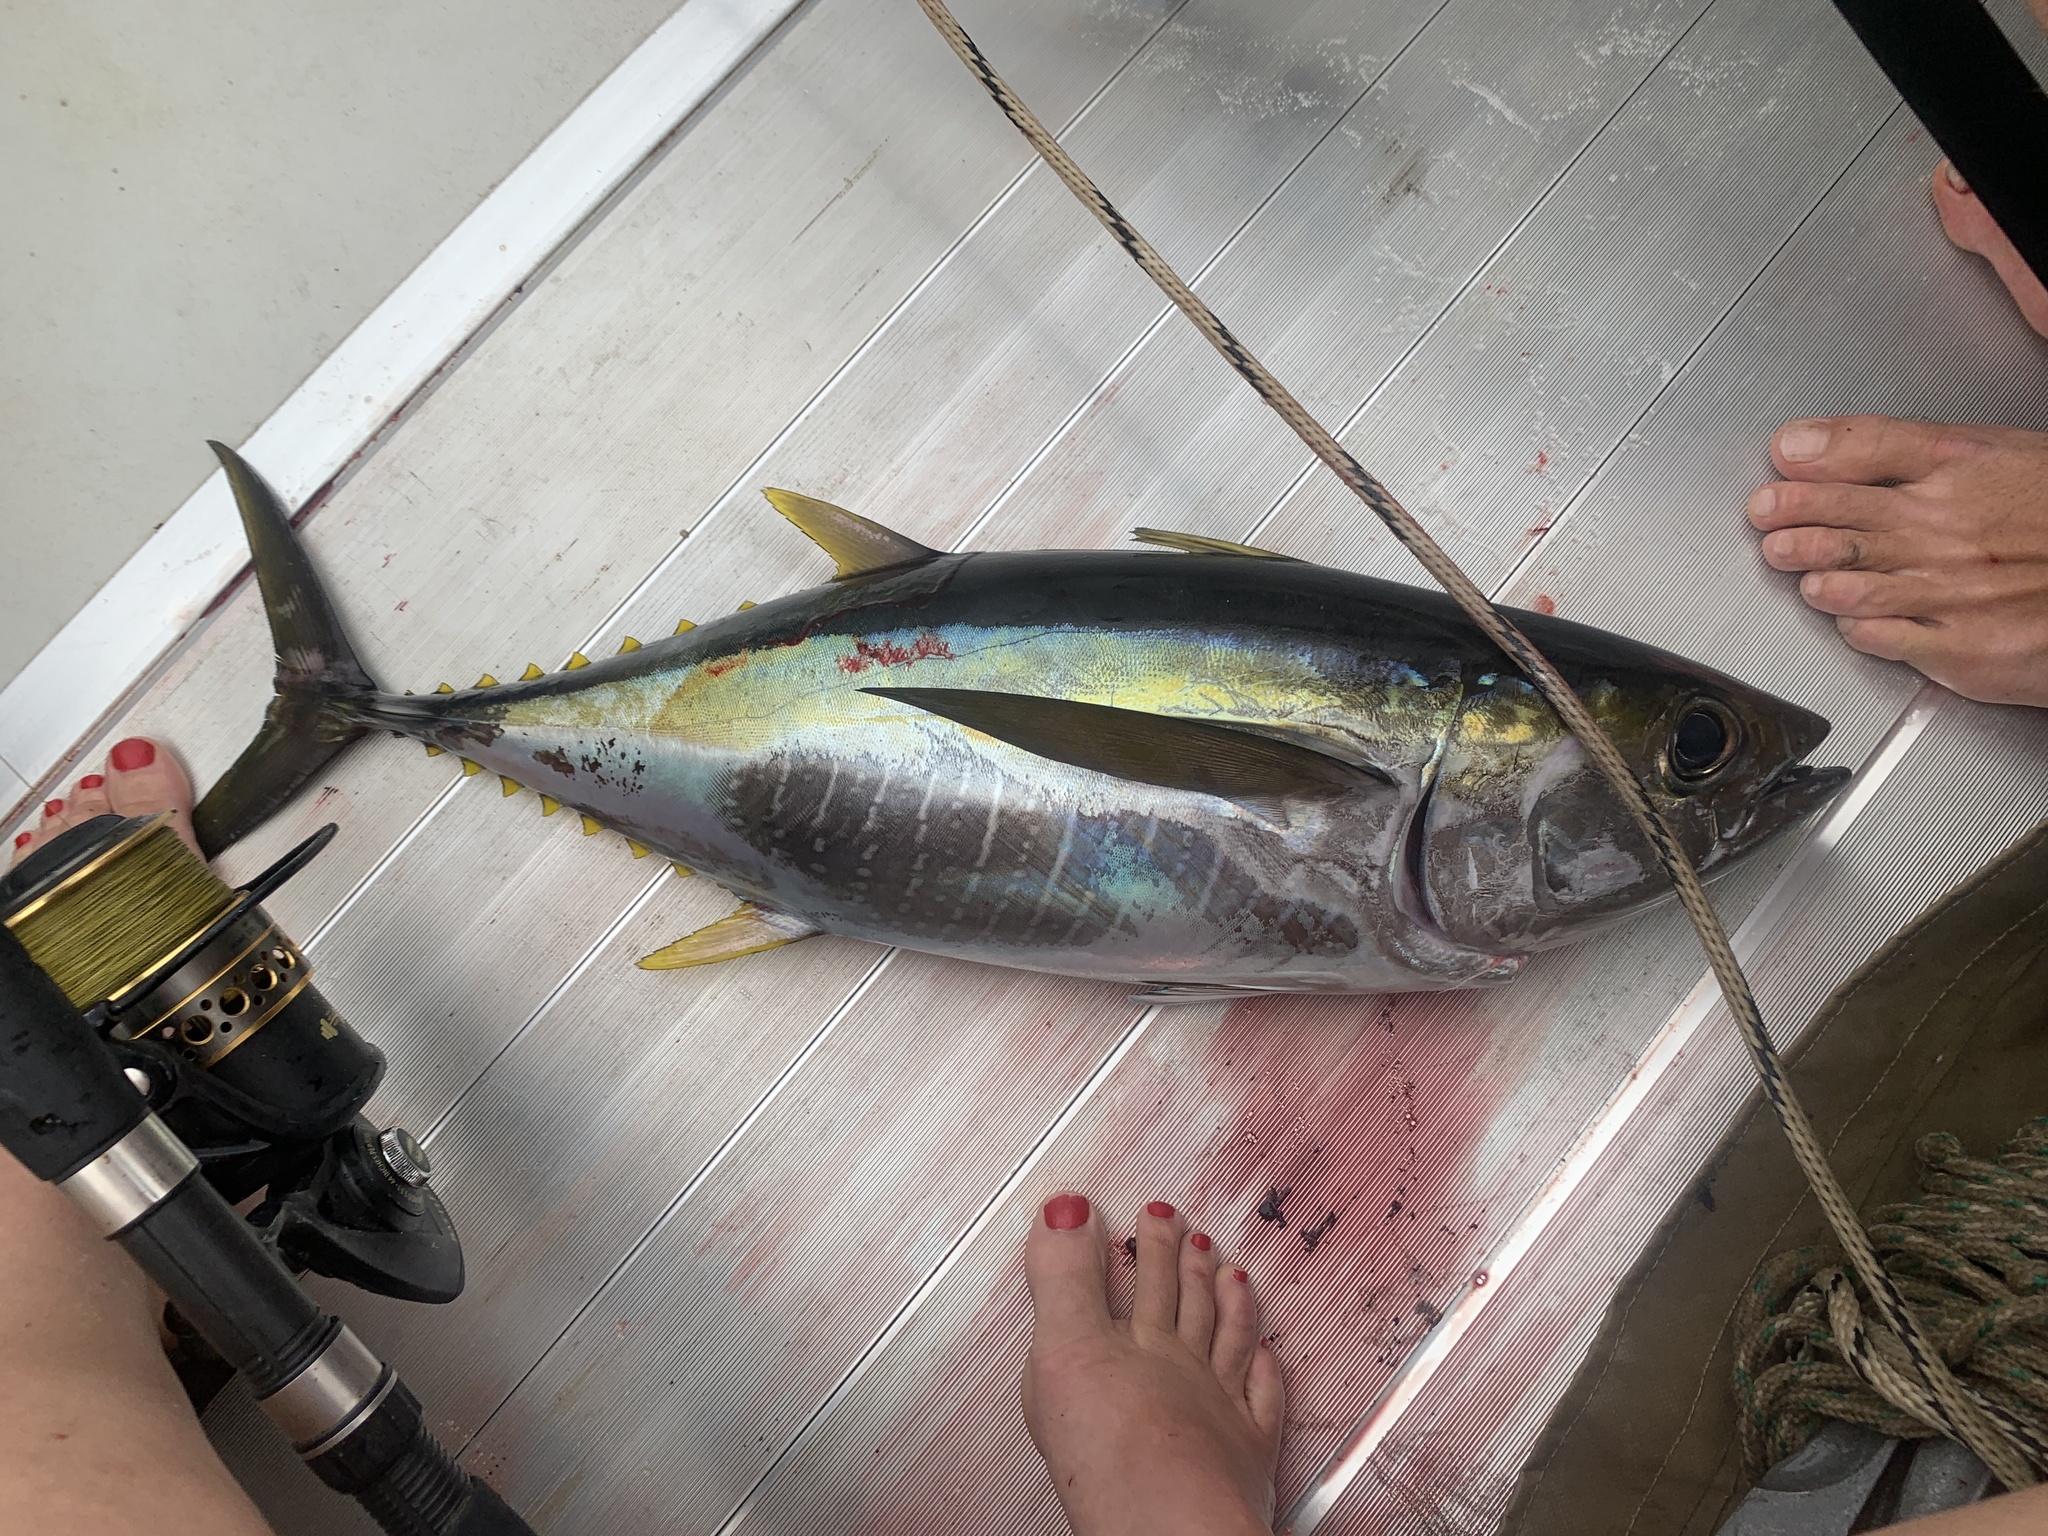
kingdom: Animalia
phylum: Chordata
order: Perciformes
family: Scombridae
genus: Thunnus
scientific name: Thunnus albacares
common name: Yellowfin tuna
